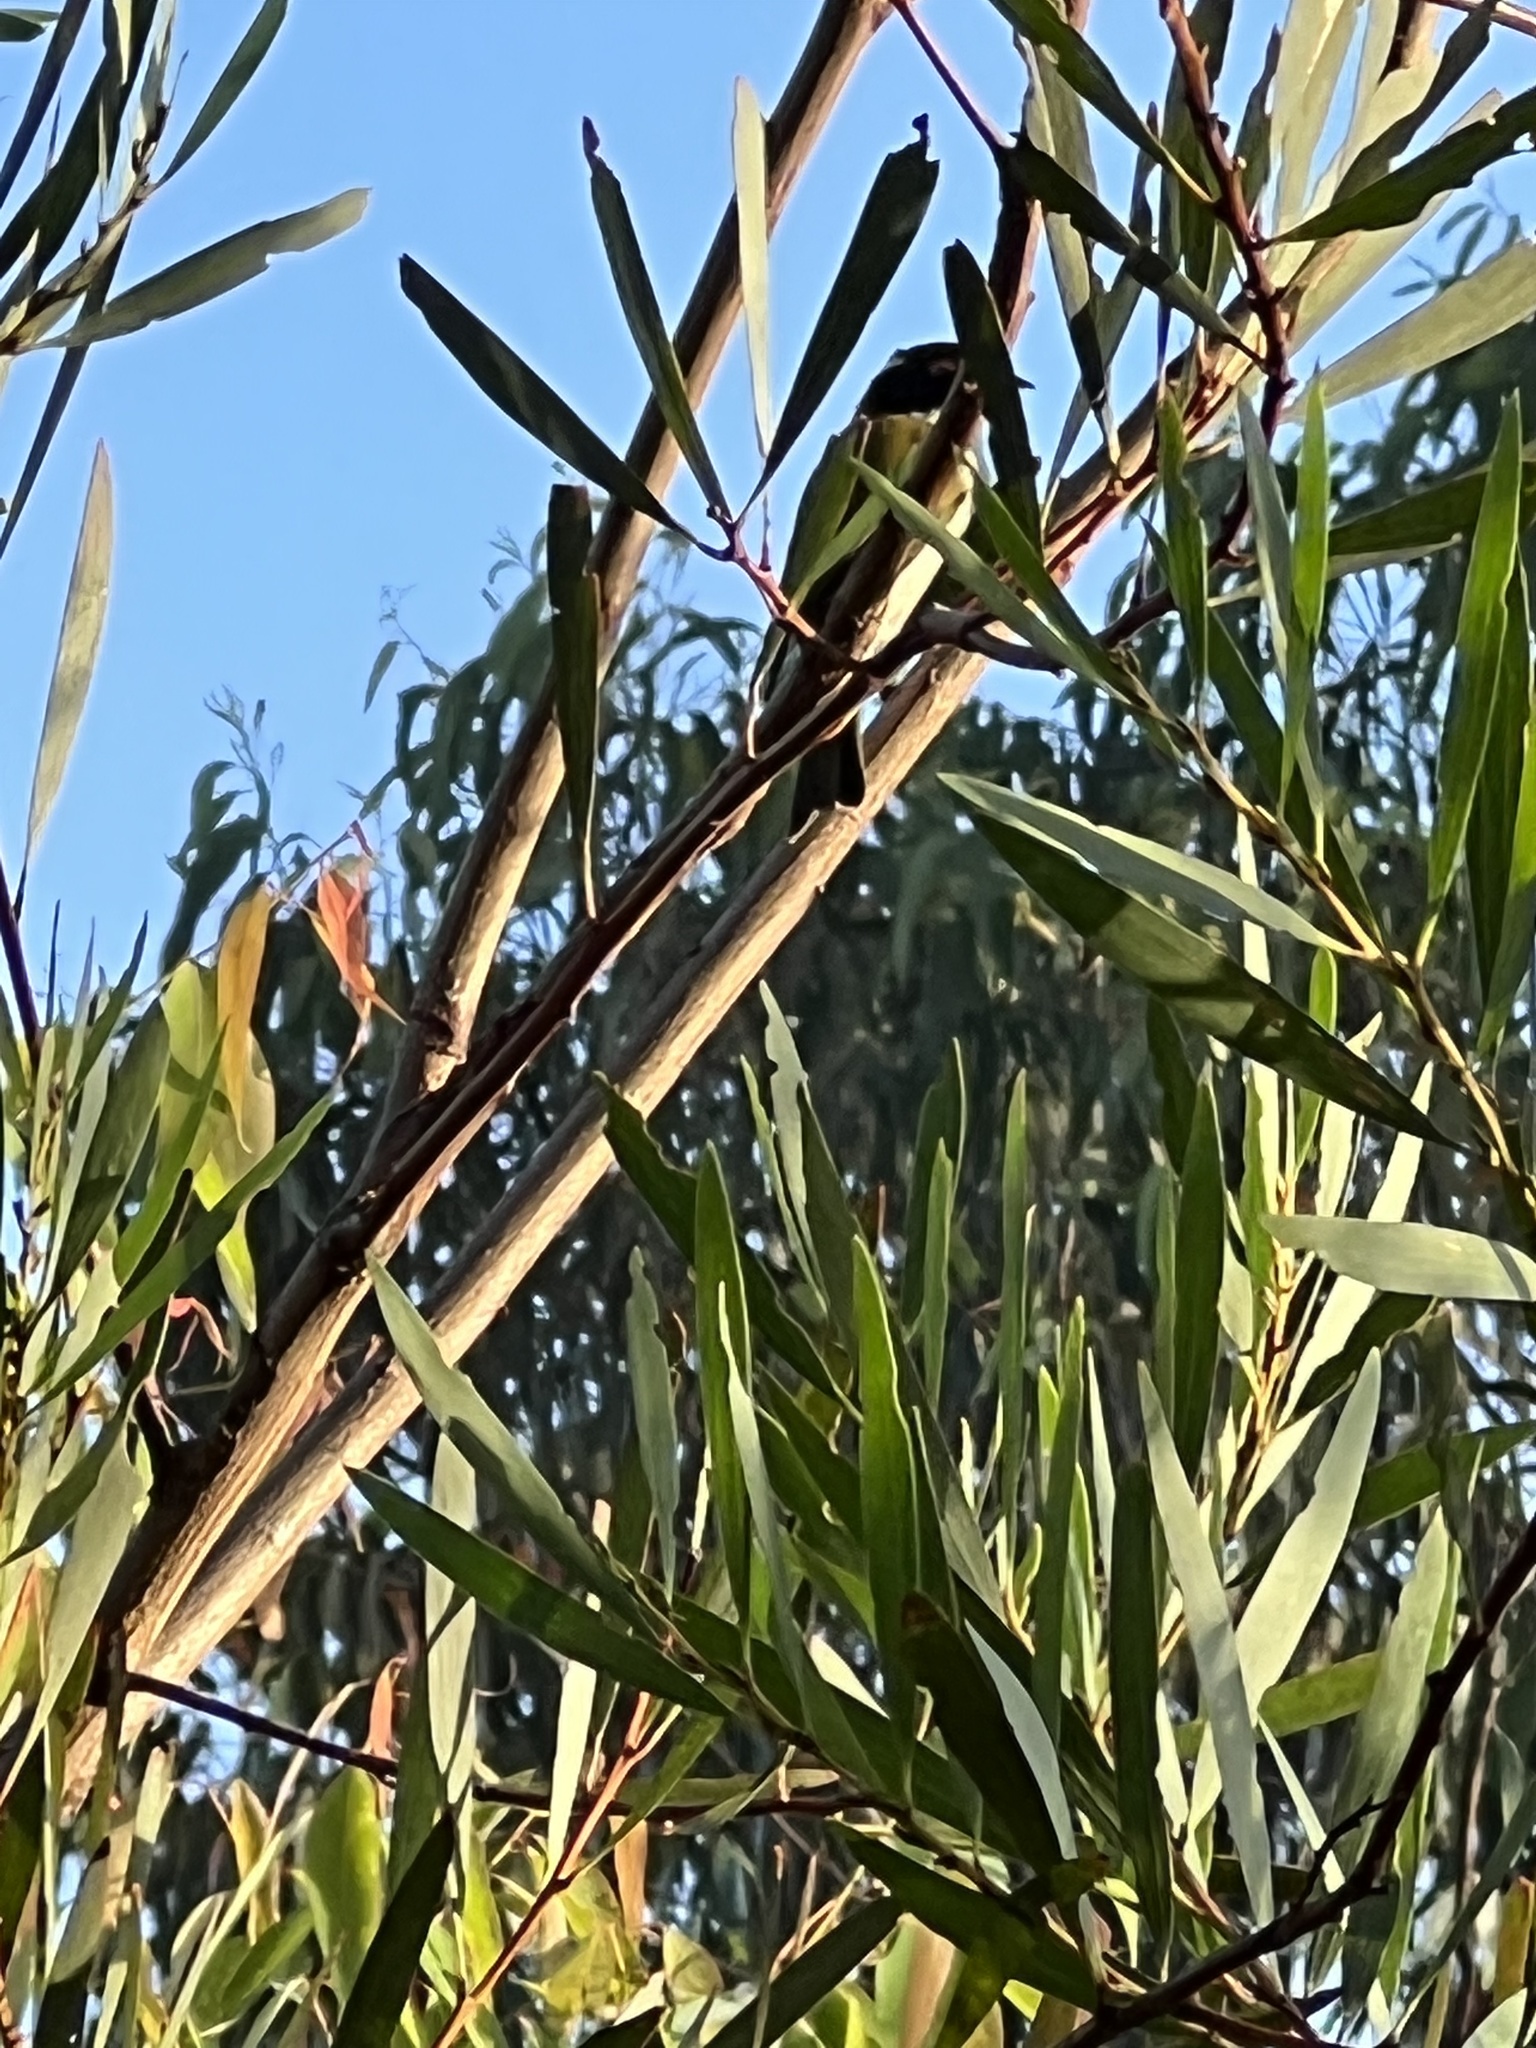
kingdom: Animalia
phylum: Chordata
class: Aves
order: Passeriformes
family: Meliphagidae
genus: Melithreptus
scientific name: Melithreptus lunatus
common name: White-naped honeyeater
